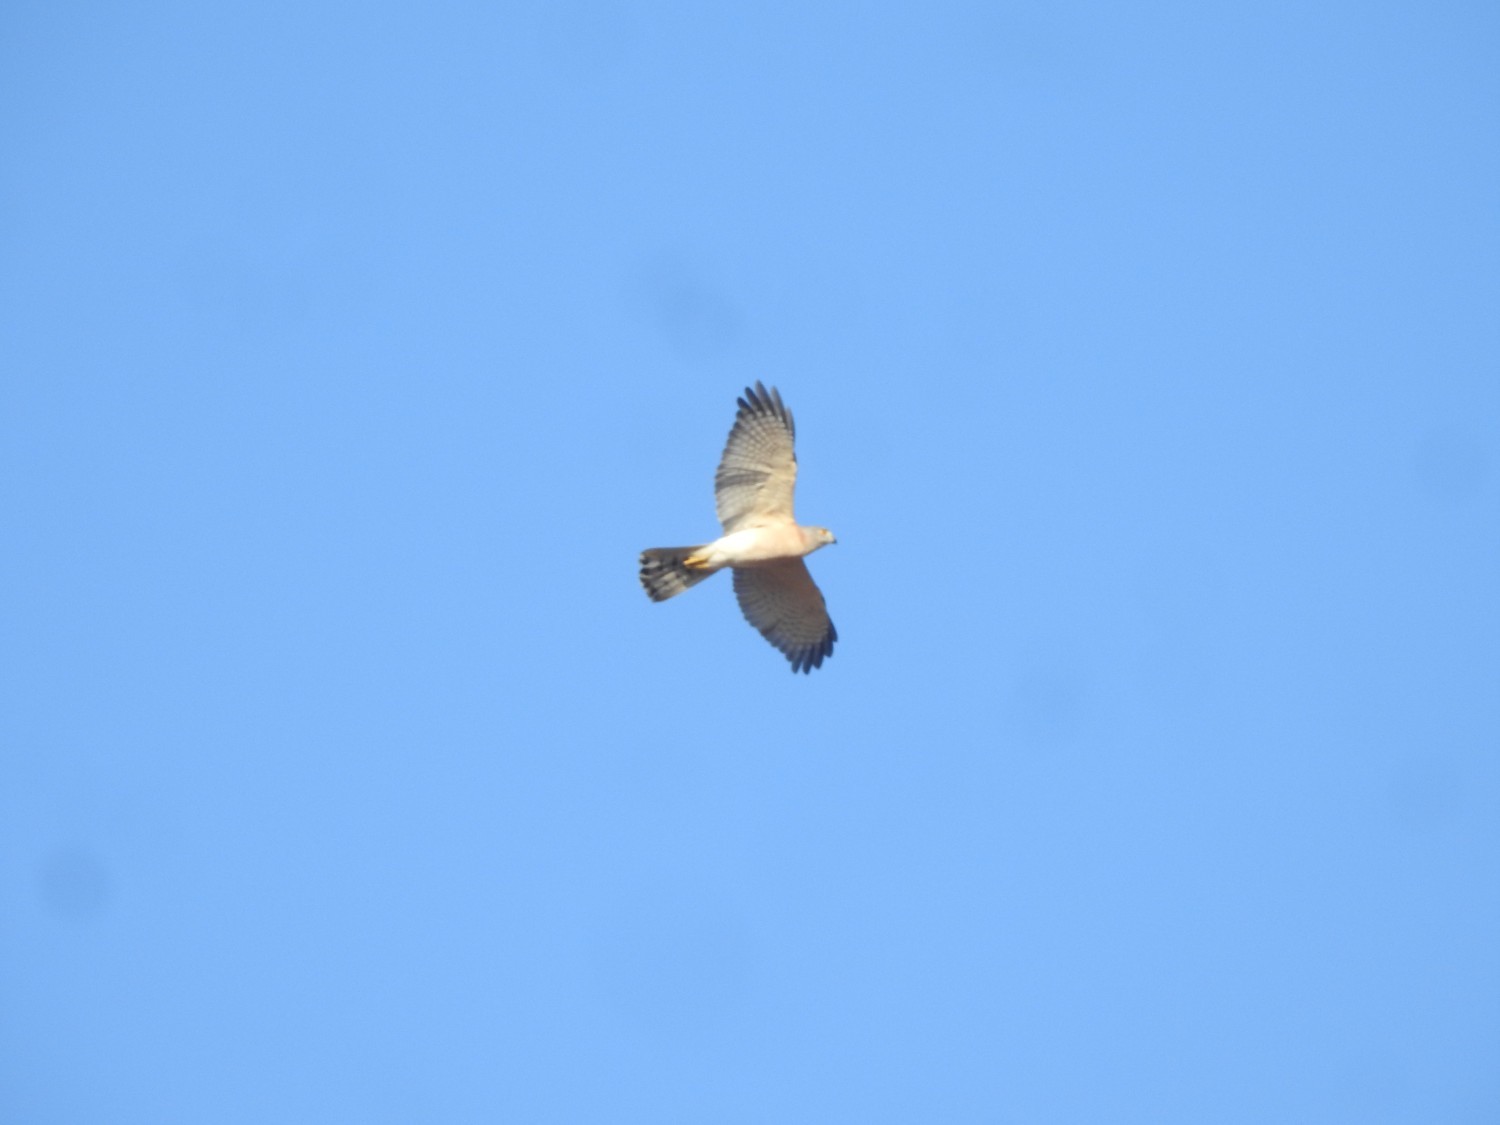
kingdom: Animalia
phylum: Chordata
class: Aves
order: Accipitriformes
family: Accipitridae
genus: Accipiter
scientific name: Accipiter badius
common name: Shikra
